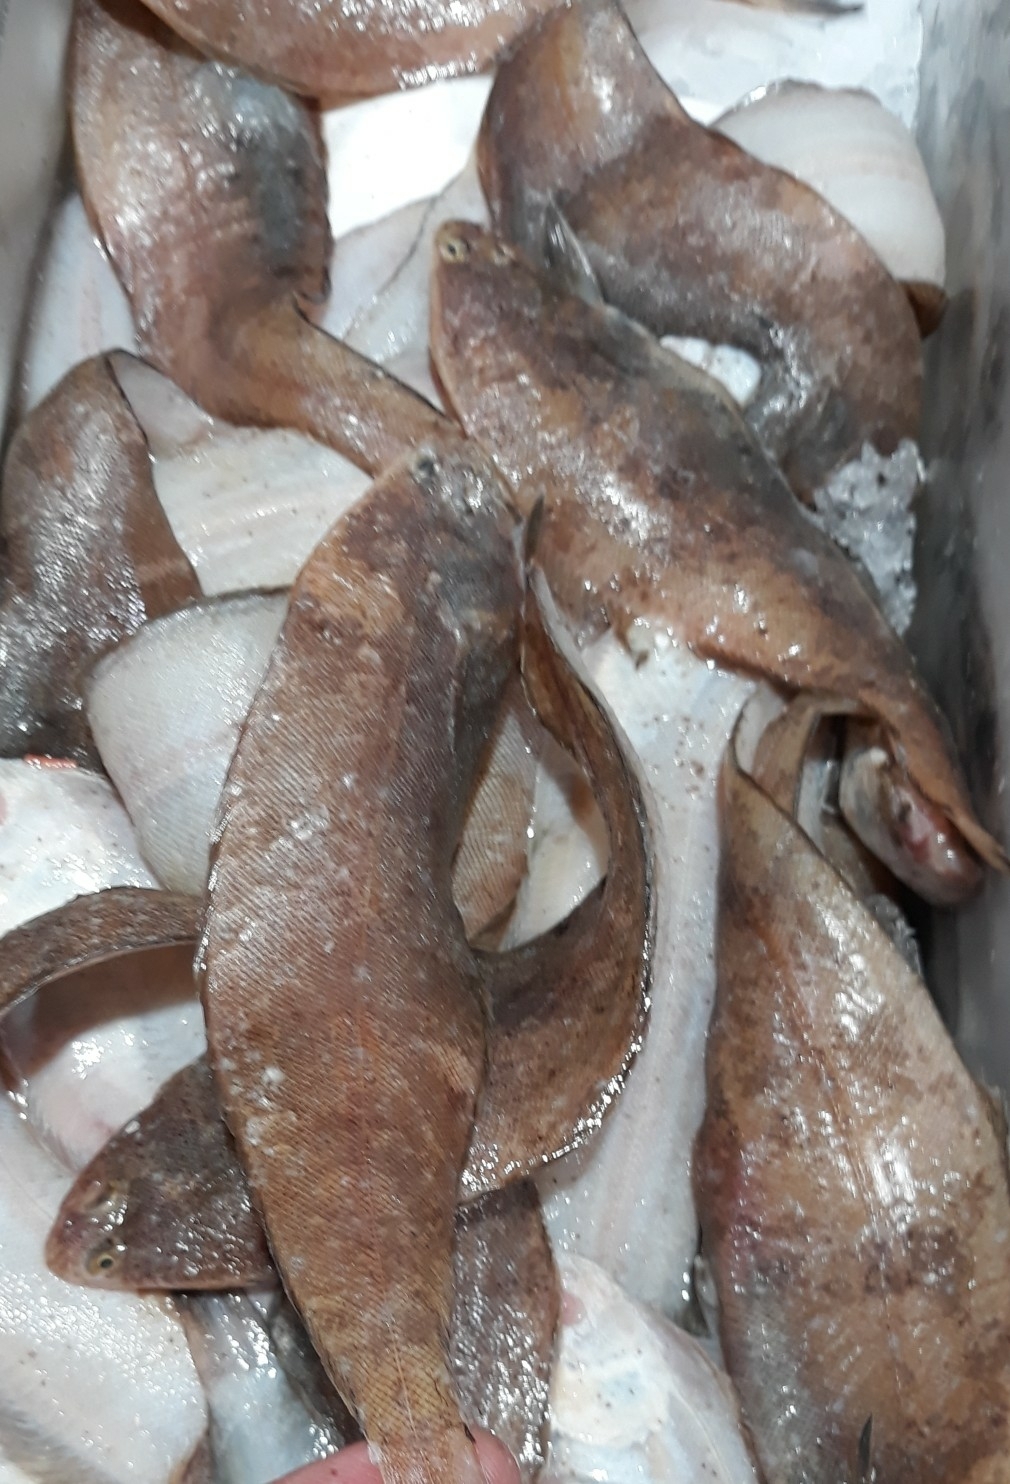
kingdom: Animalia
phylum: Chordata
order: Pleuronectiformes
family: Soleidae
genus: Dicologlossa
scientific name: Dicologlossa cuneata
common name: Wedge sole
